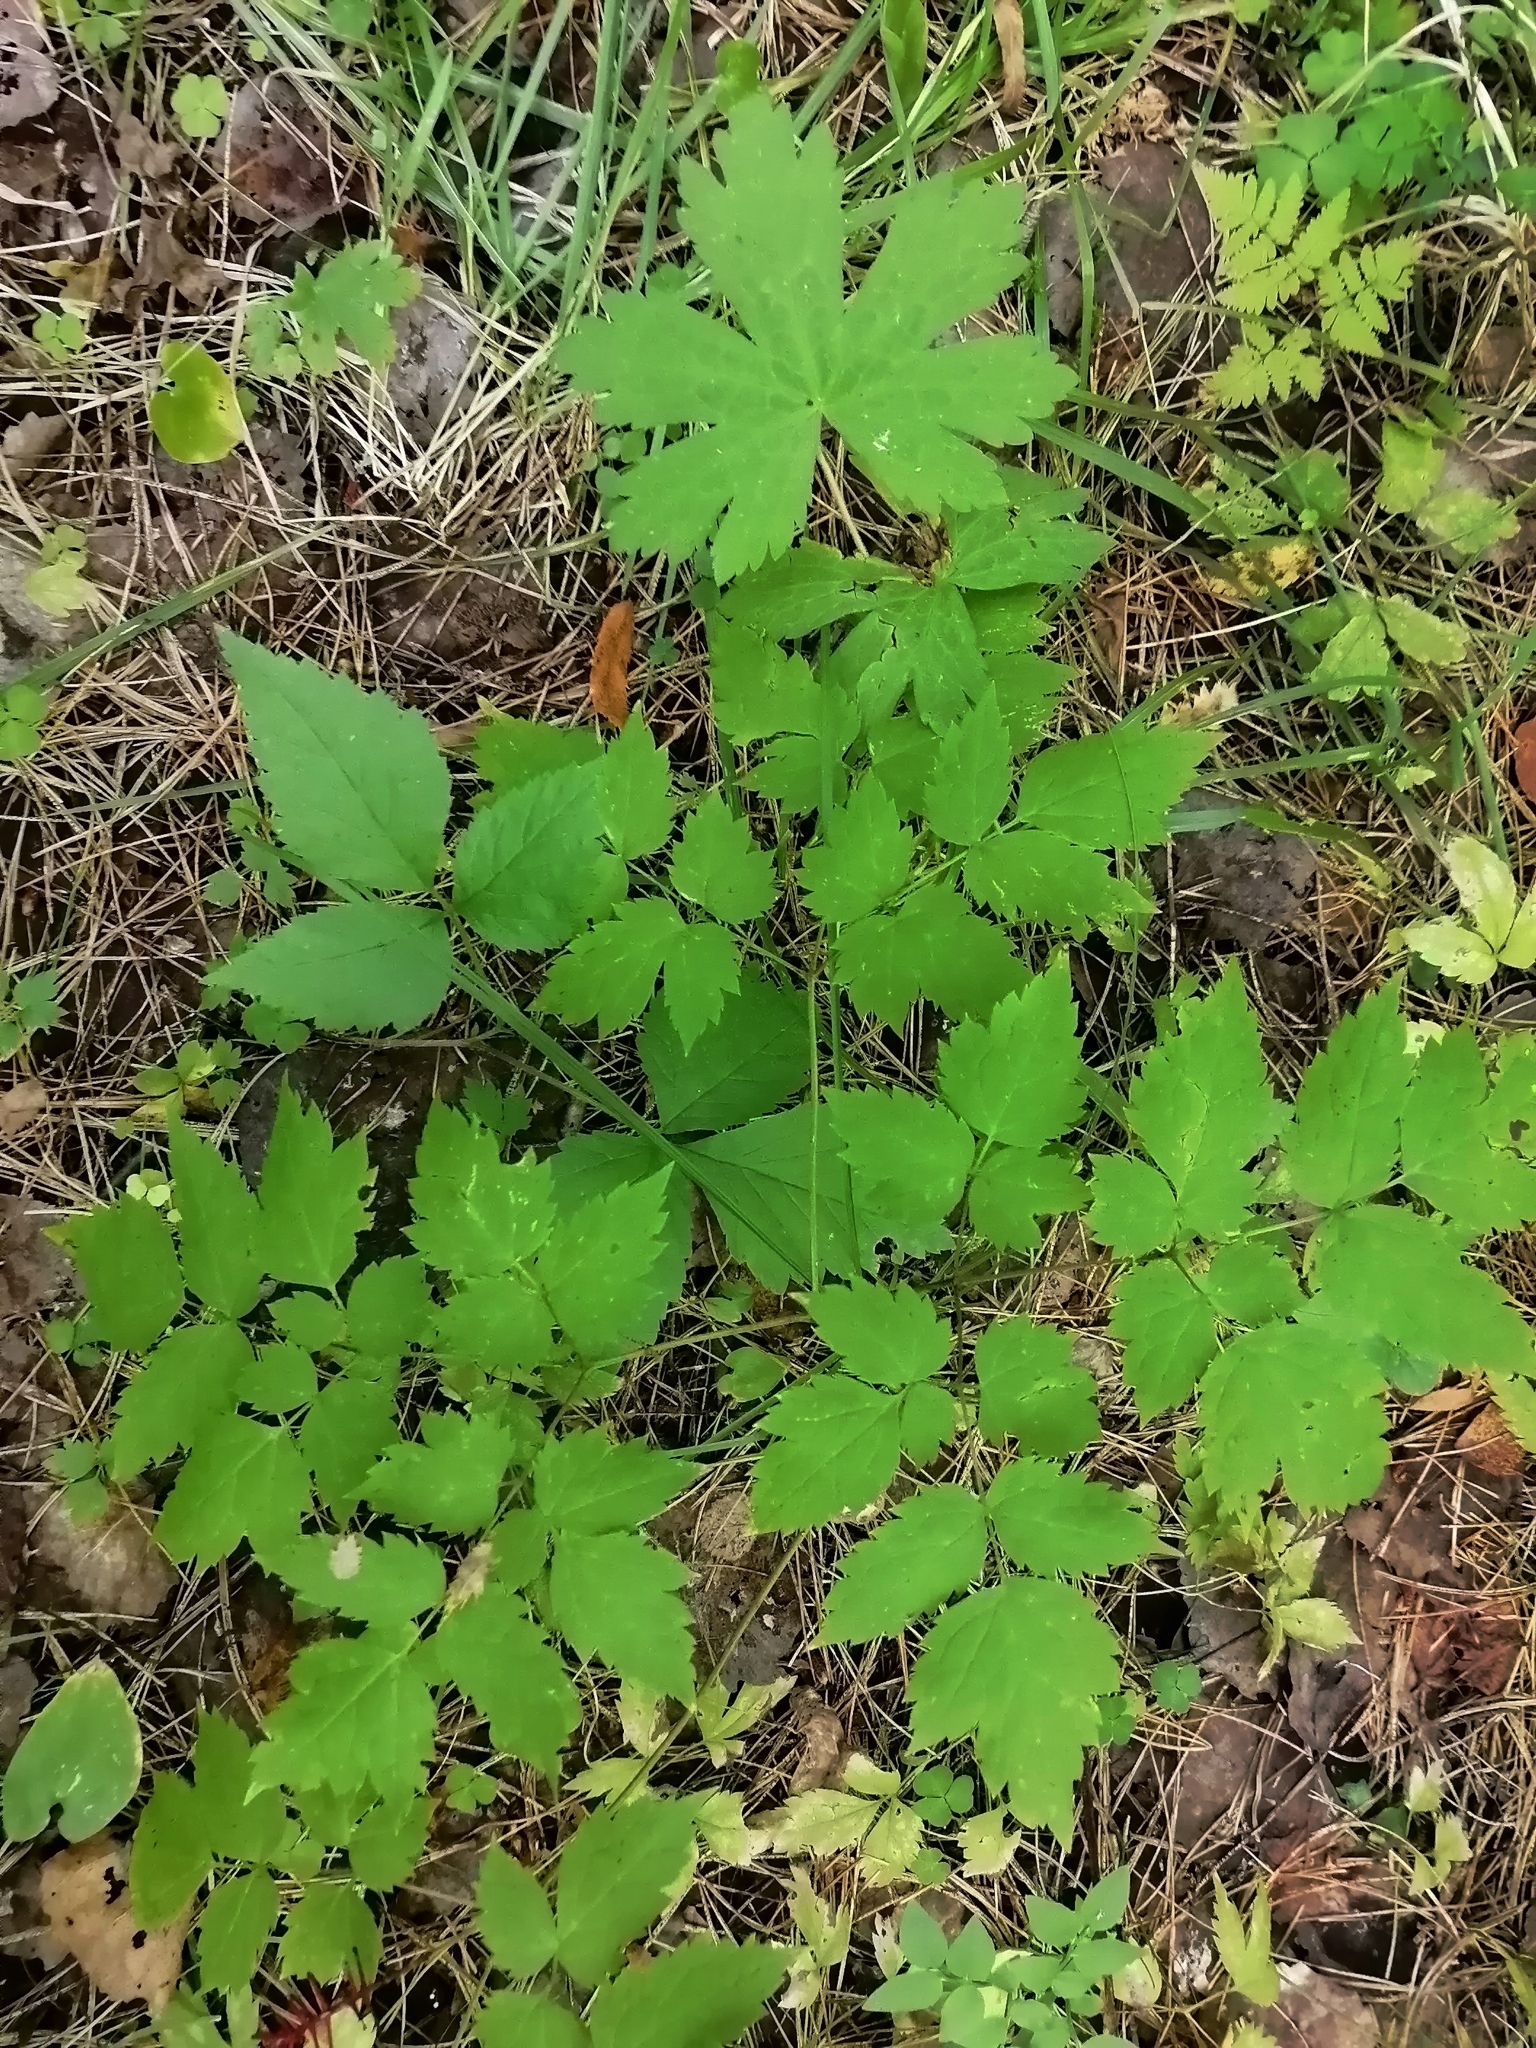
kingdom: Plantae
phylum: Tracheophyta
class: Magnoliopsida
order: Ranunculales
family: Ranunculaceae
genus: Actaea
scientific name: Actaea erythrocarpa
